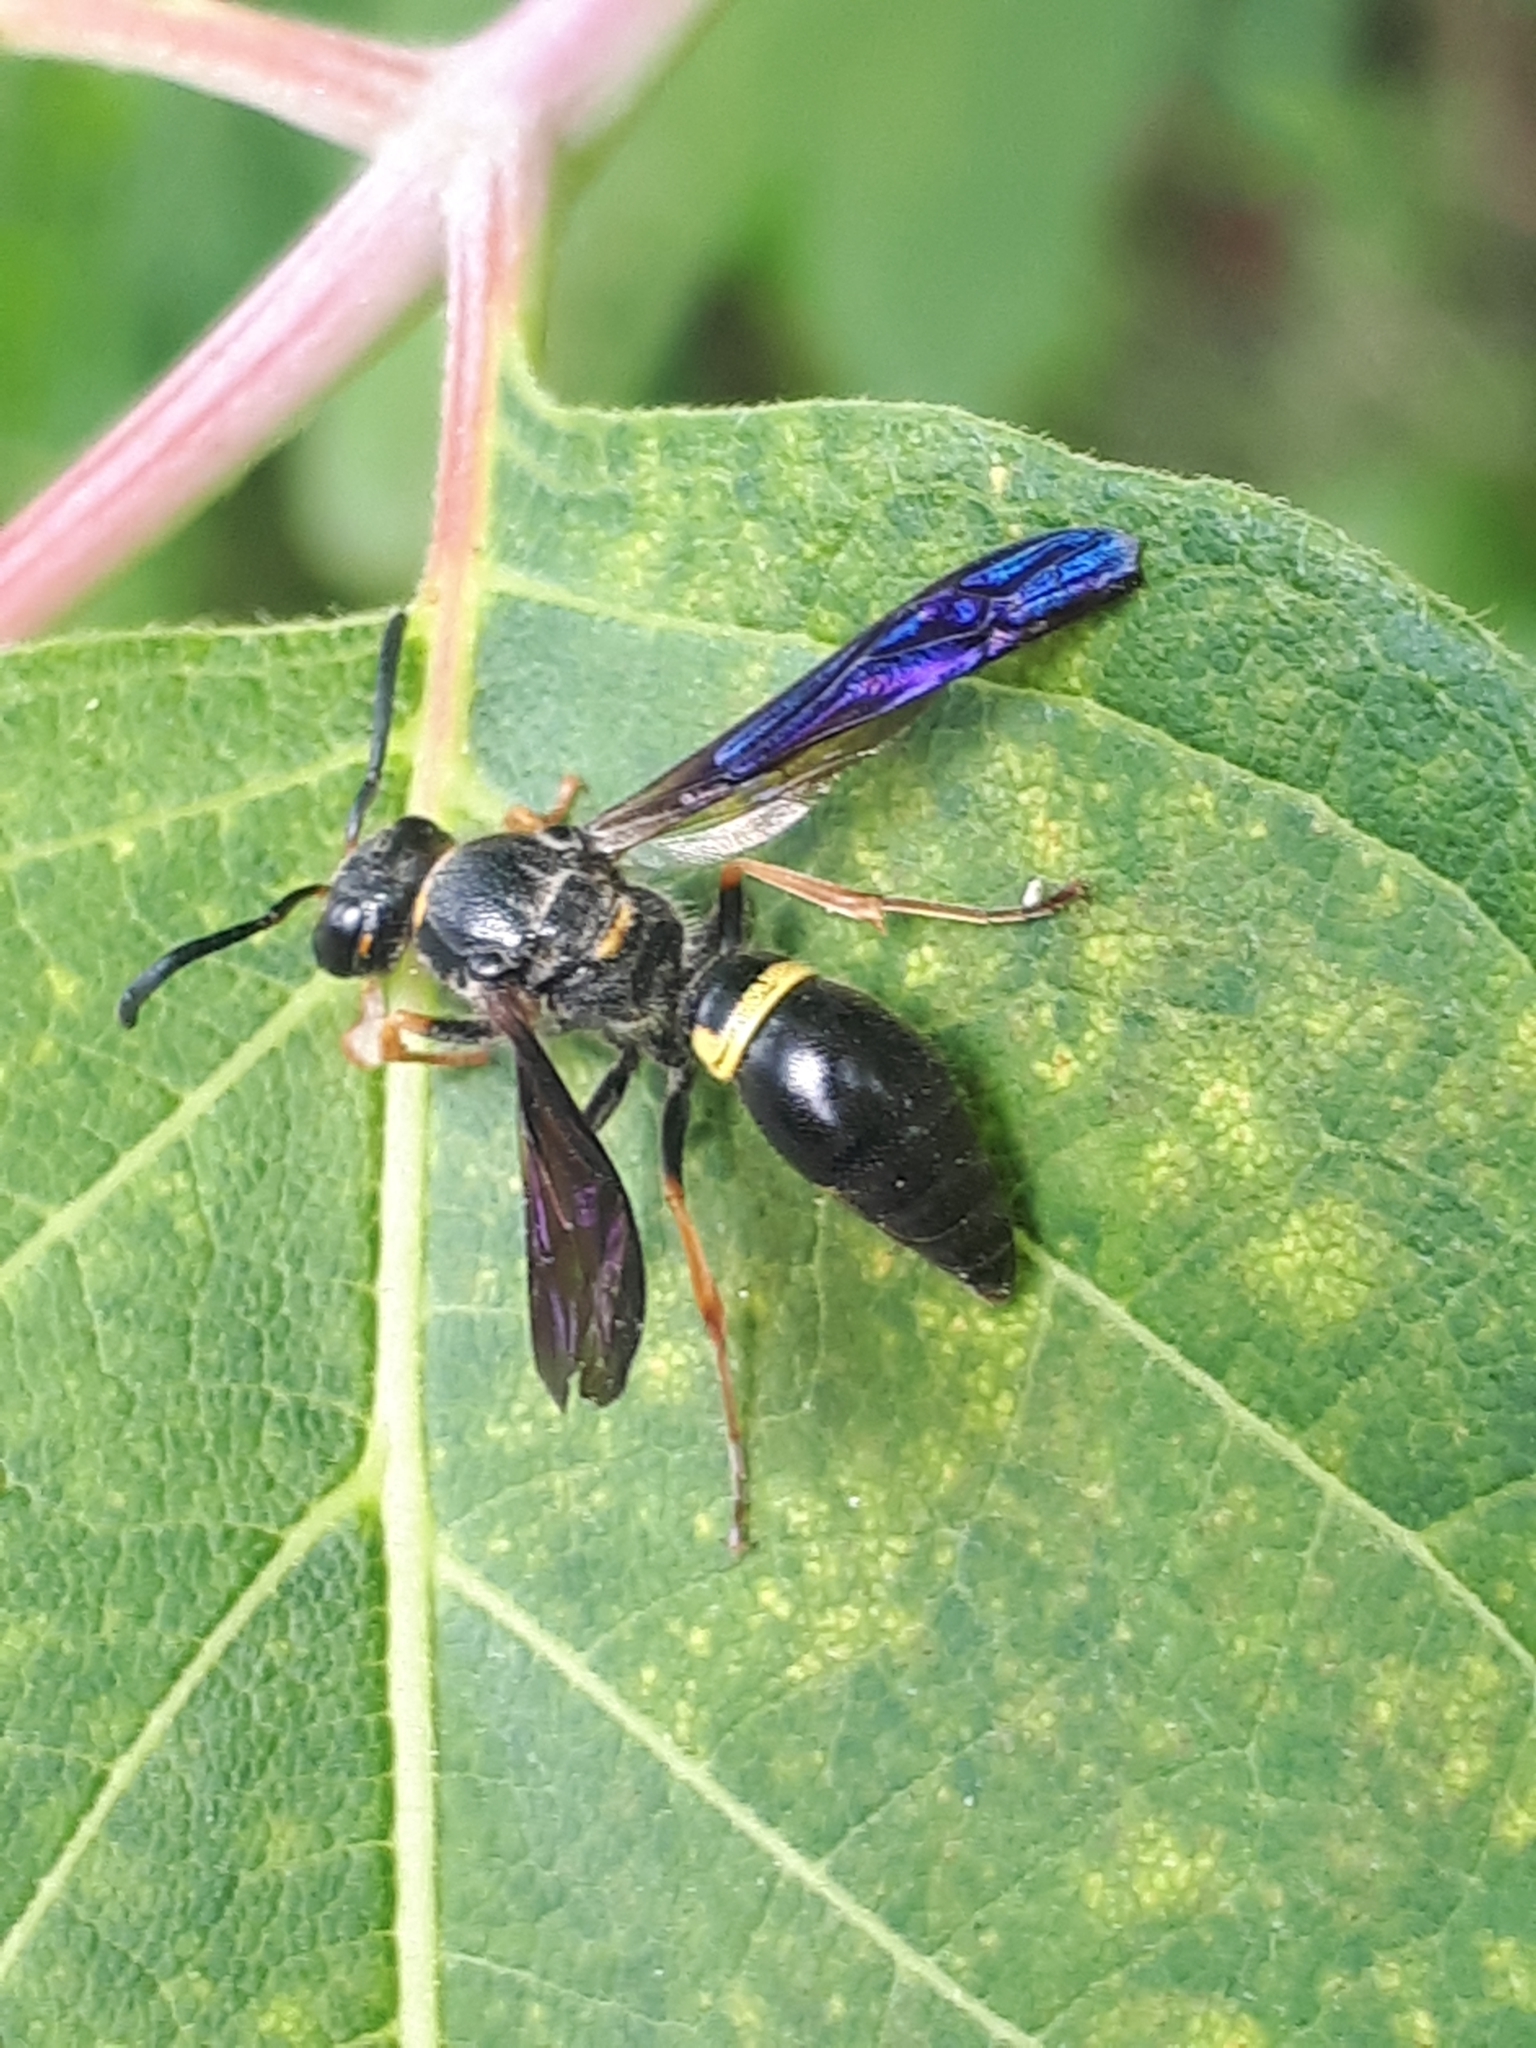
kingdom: Animalia
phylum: Arthropoda
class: Insecta
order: Hymenoptera
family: Vespidae
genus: Ancistrocerus
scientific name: Ancistrocerus unifasciatus
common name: One-banded mason wasp
